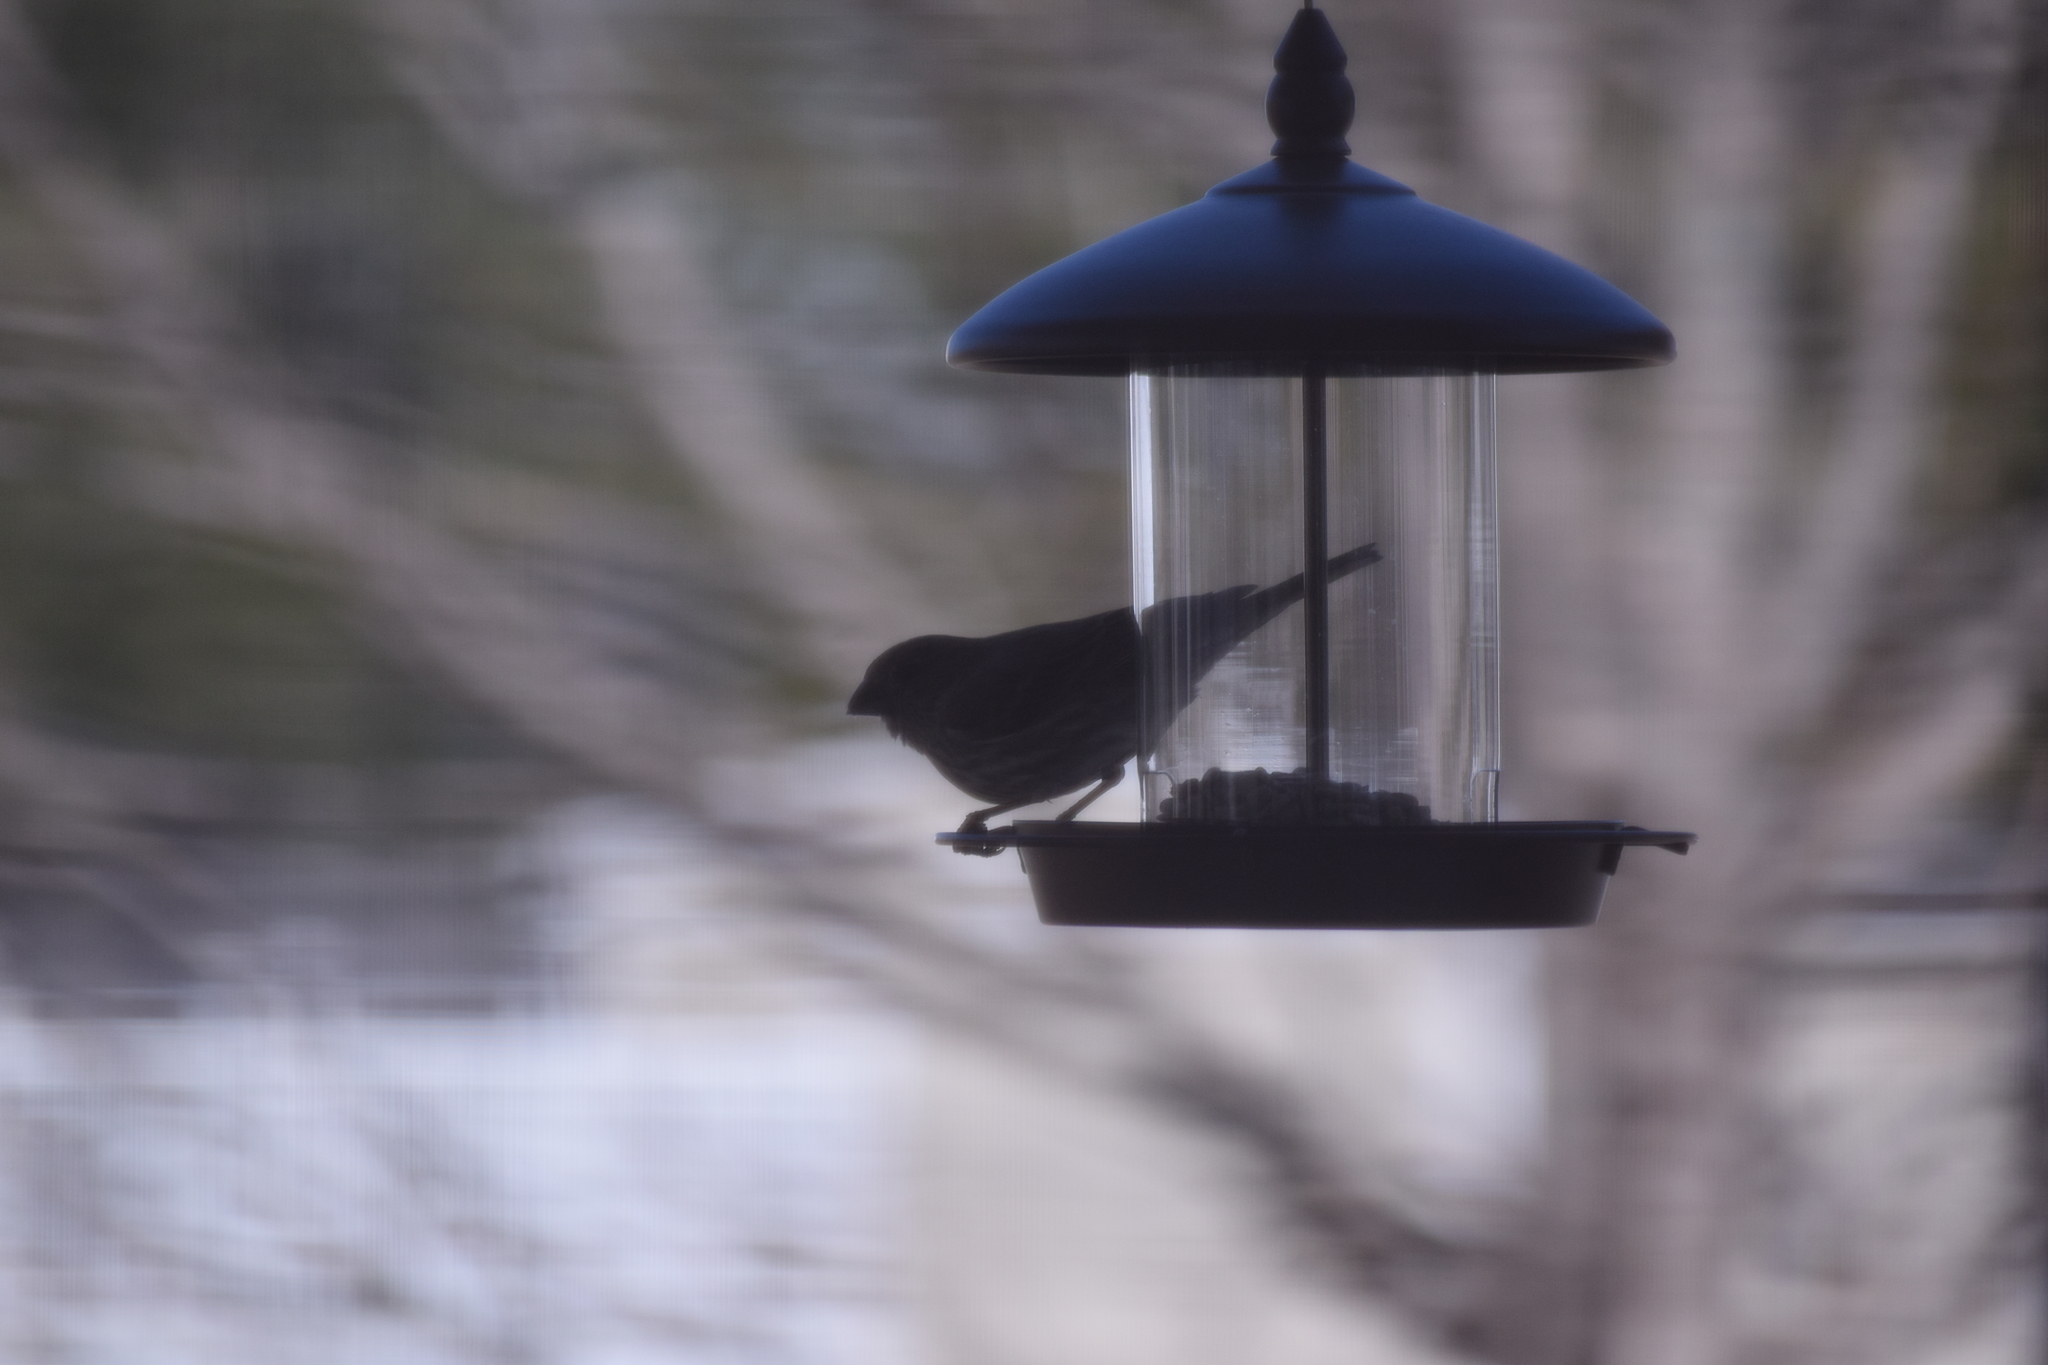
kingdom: Animalia
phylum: Chordata
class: Aves
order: Passeriformes
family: Fringillidae
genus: Haemorhous
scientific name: Haemorhous mexicanus
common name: House finch
